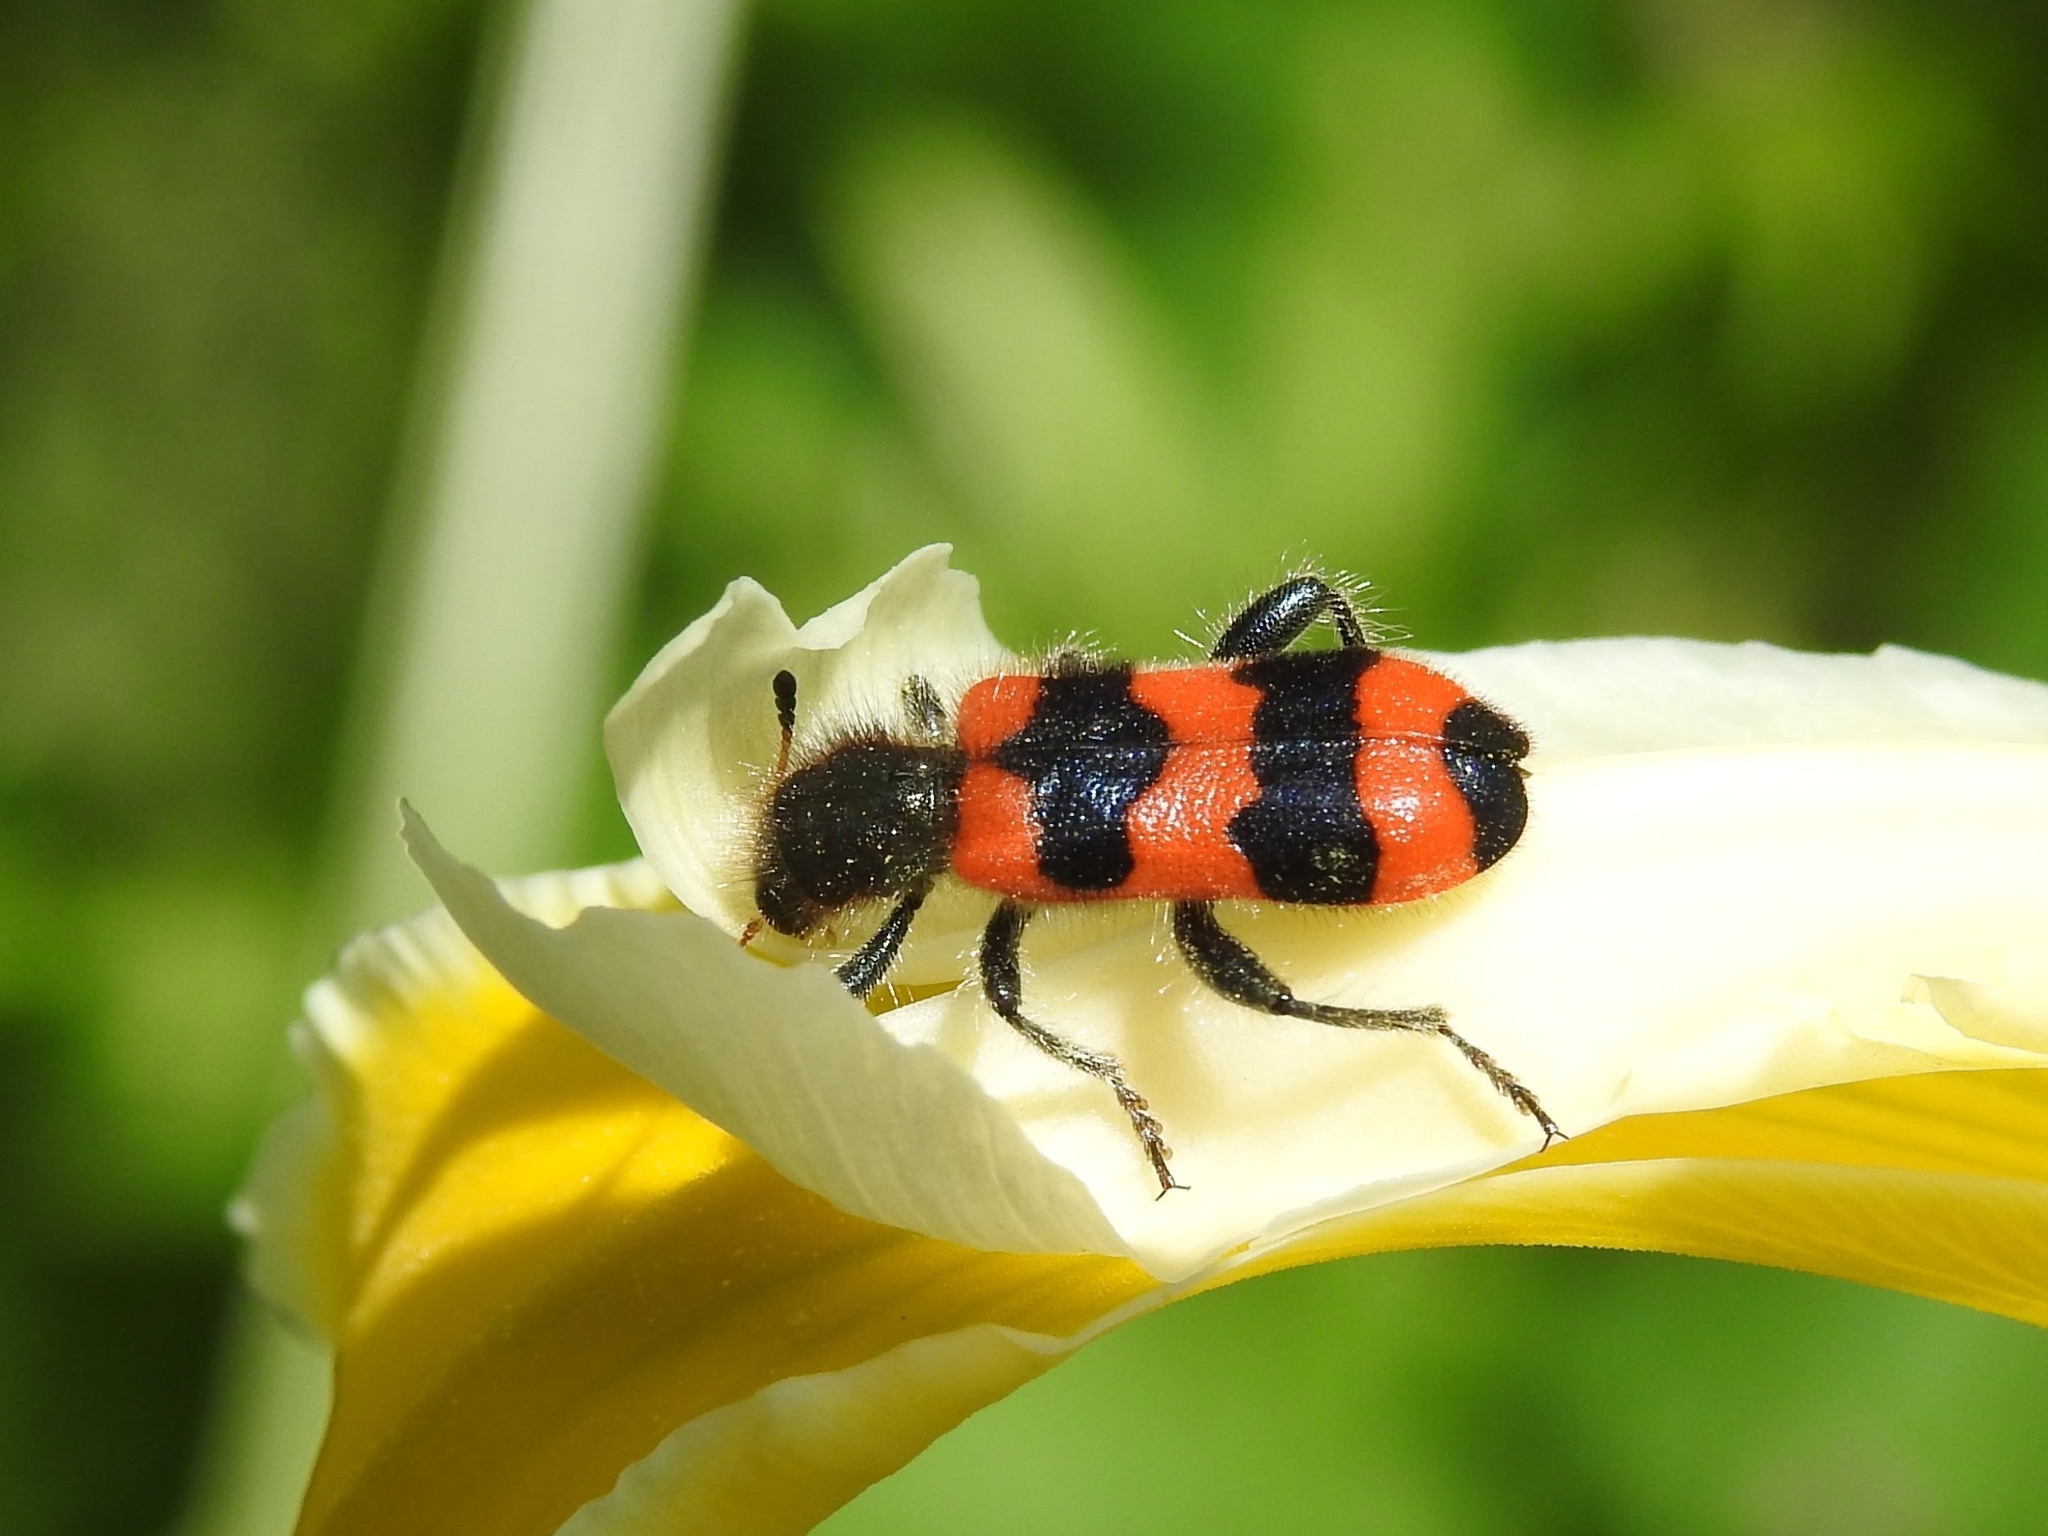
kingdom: Animalia
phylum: Arthropoda
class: Insecta
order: Coleoptera
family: Cleridae
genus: Trichodes
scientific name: Trichodes apiarius
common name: Bee-eating beetle
